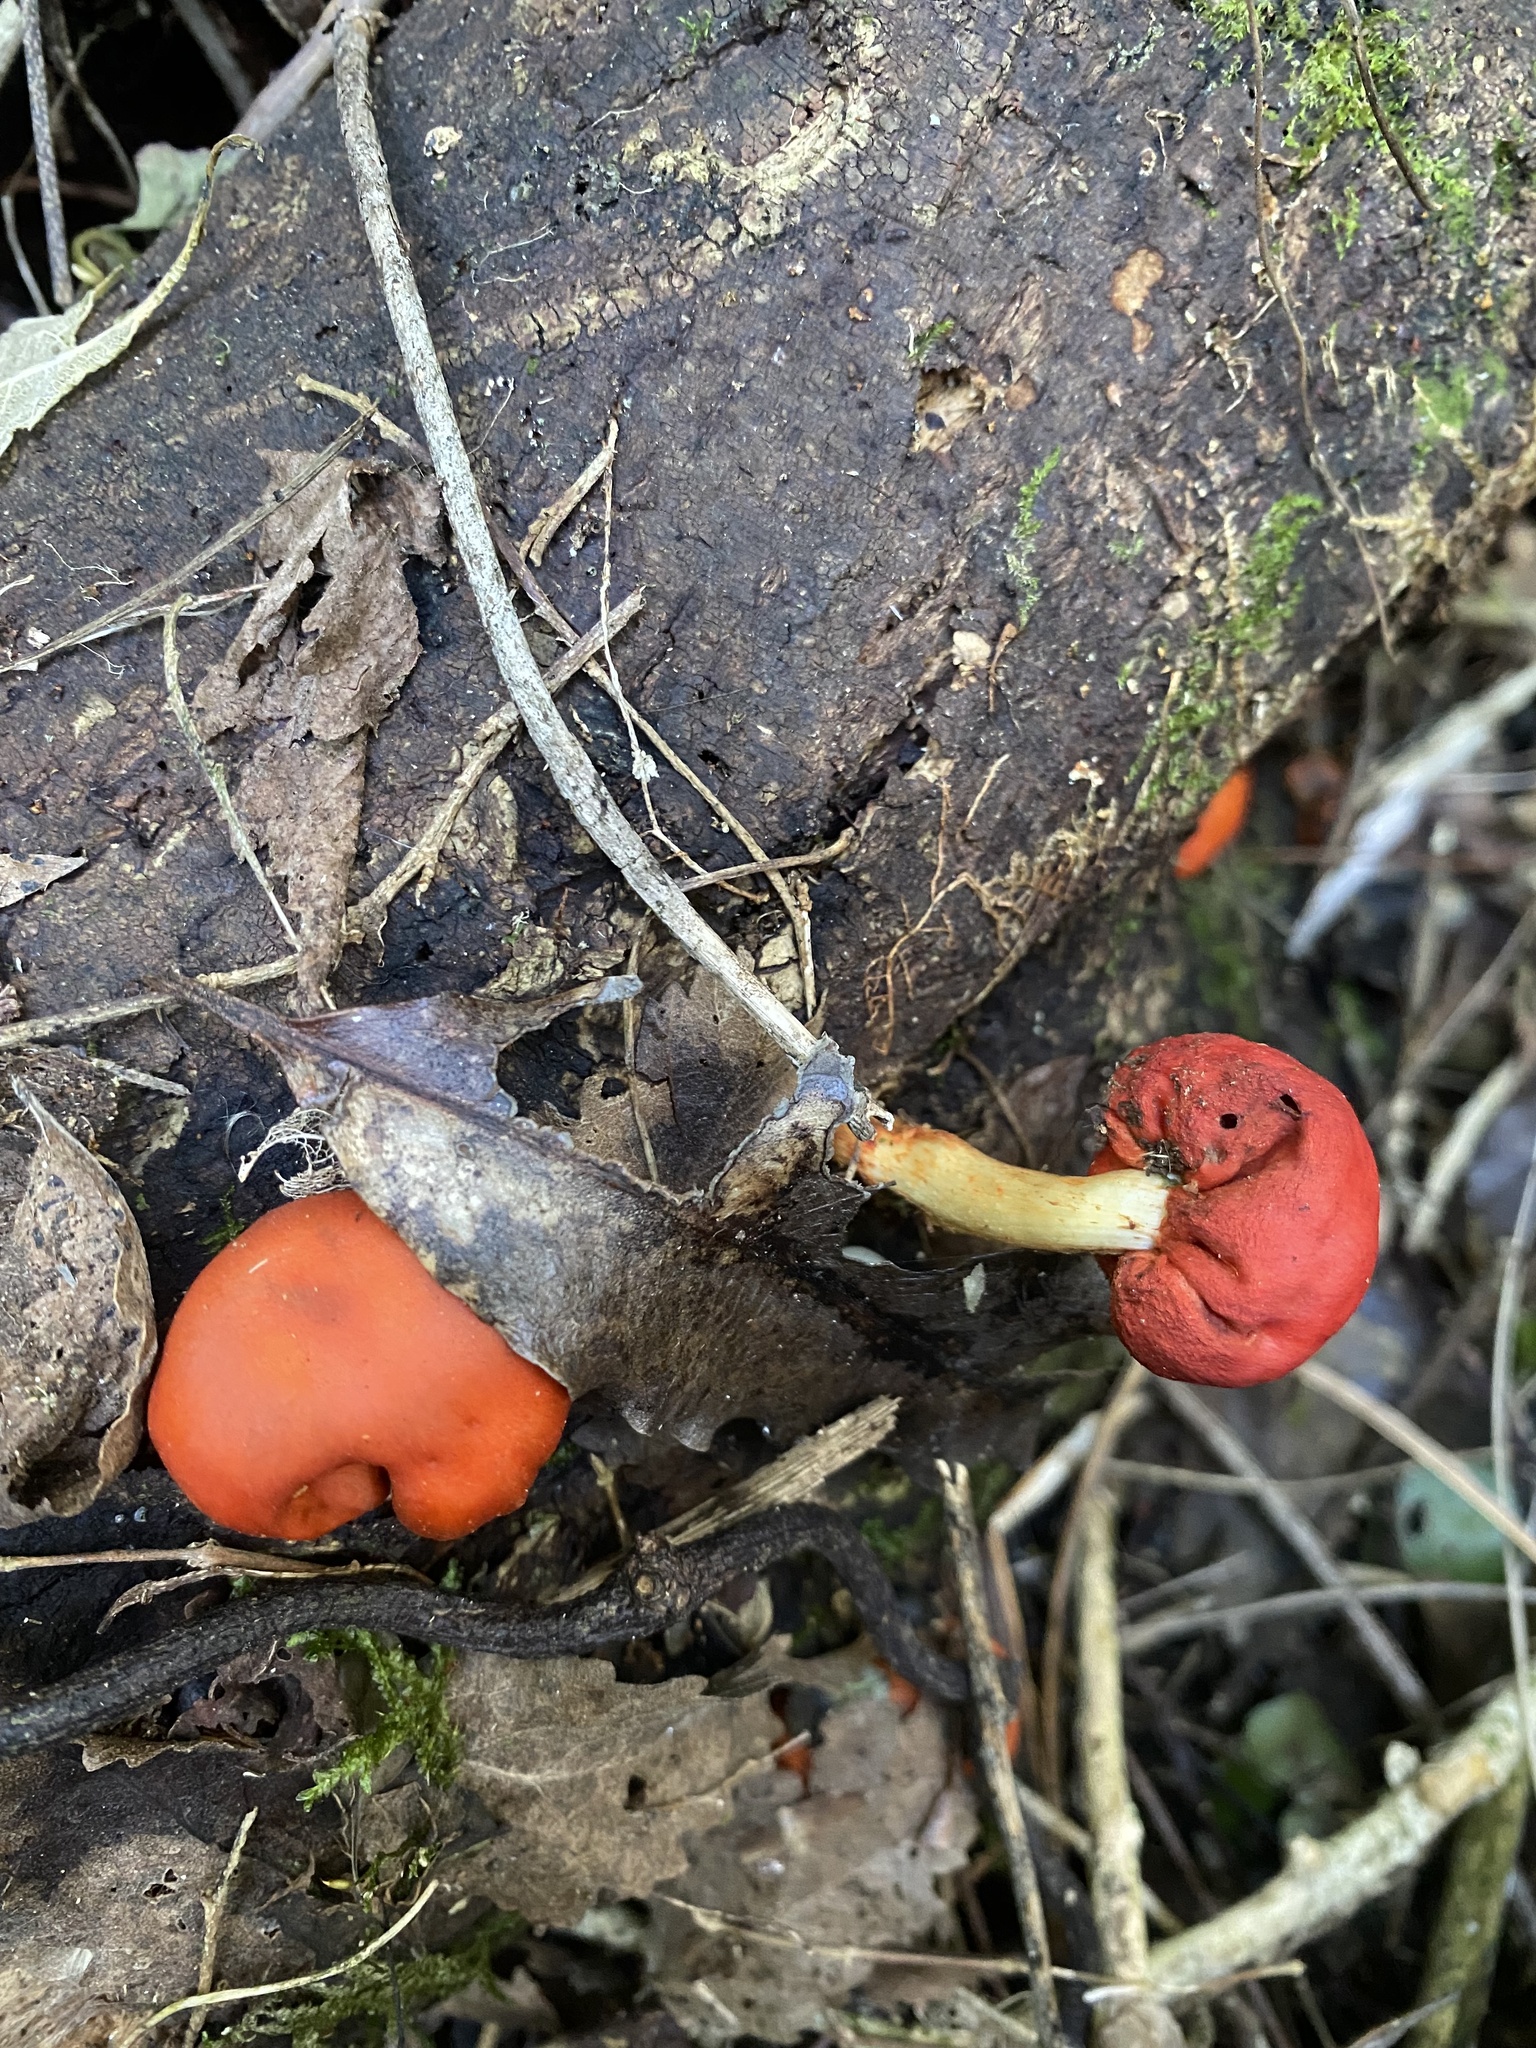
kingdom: Fungi
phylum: Basidiomycota
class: Agaricomycetes
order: Agaricales
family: Strophariaceae
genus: Leratiomyces
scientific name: Leratiomyces erythrocephalus
